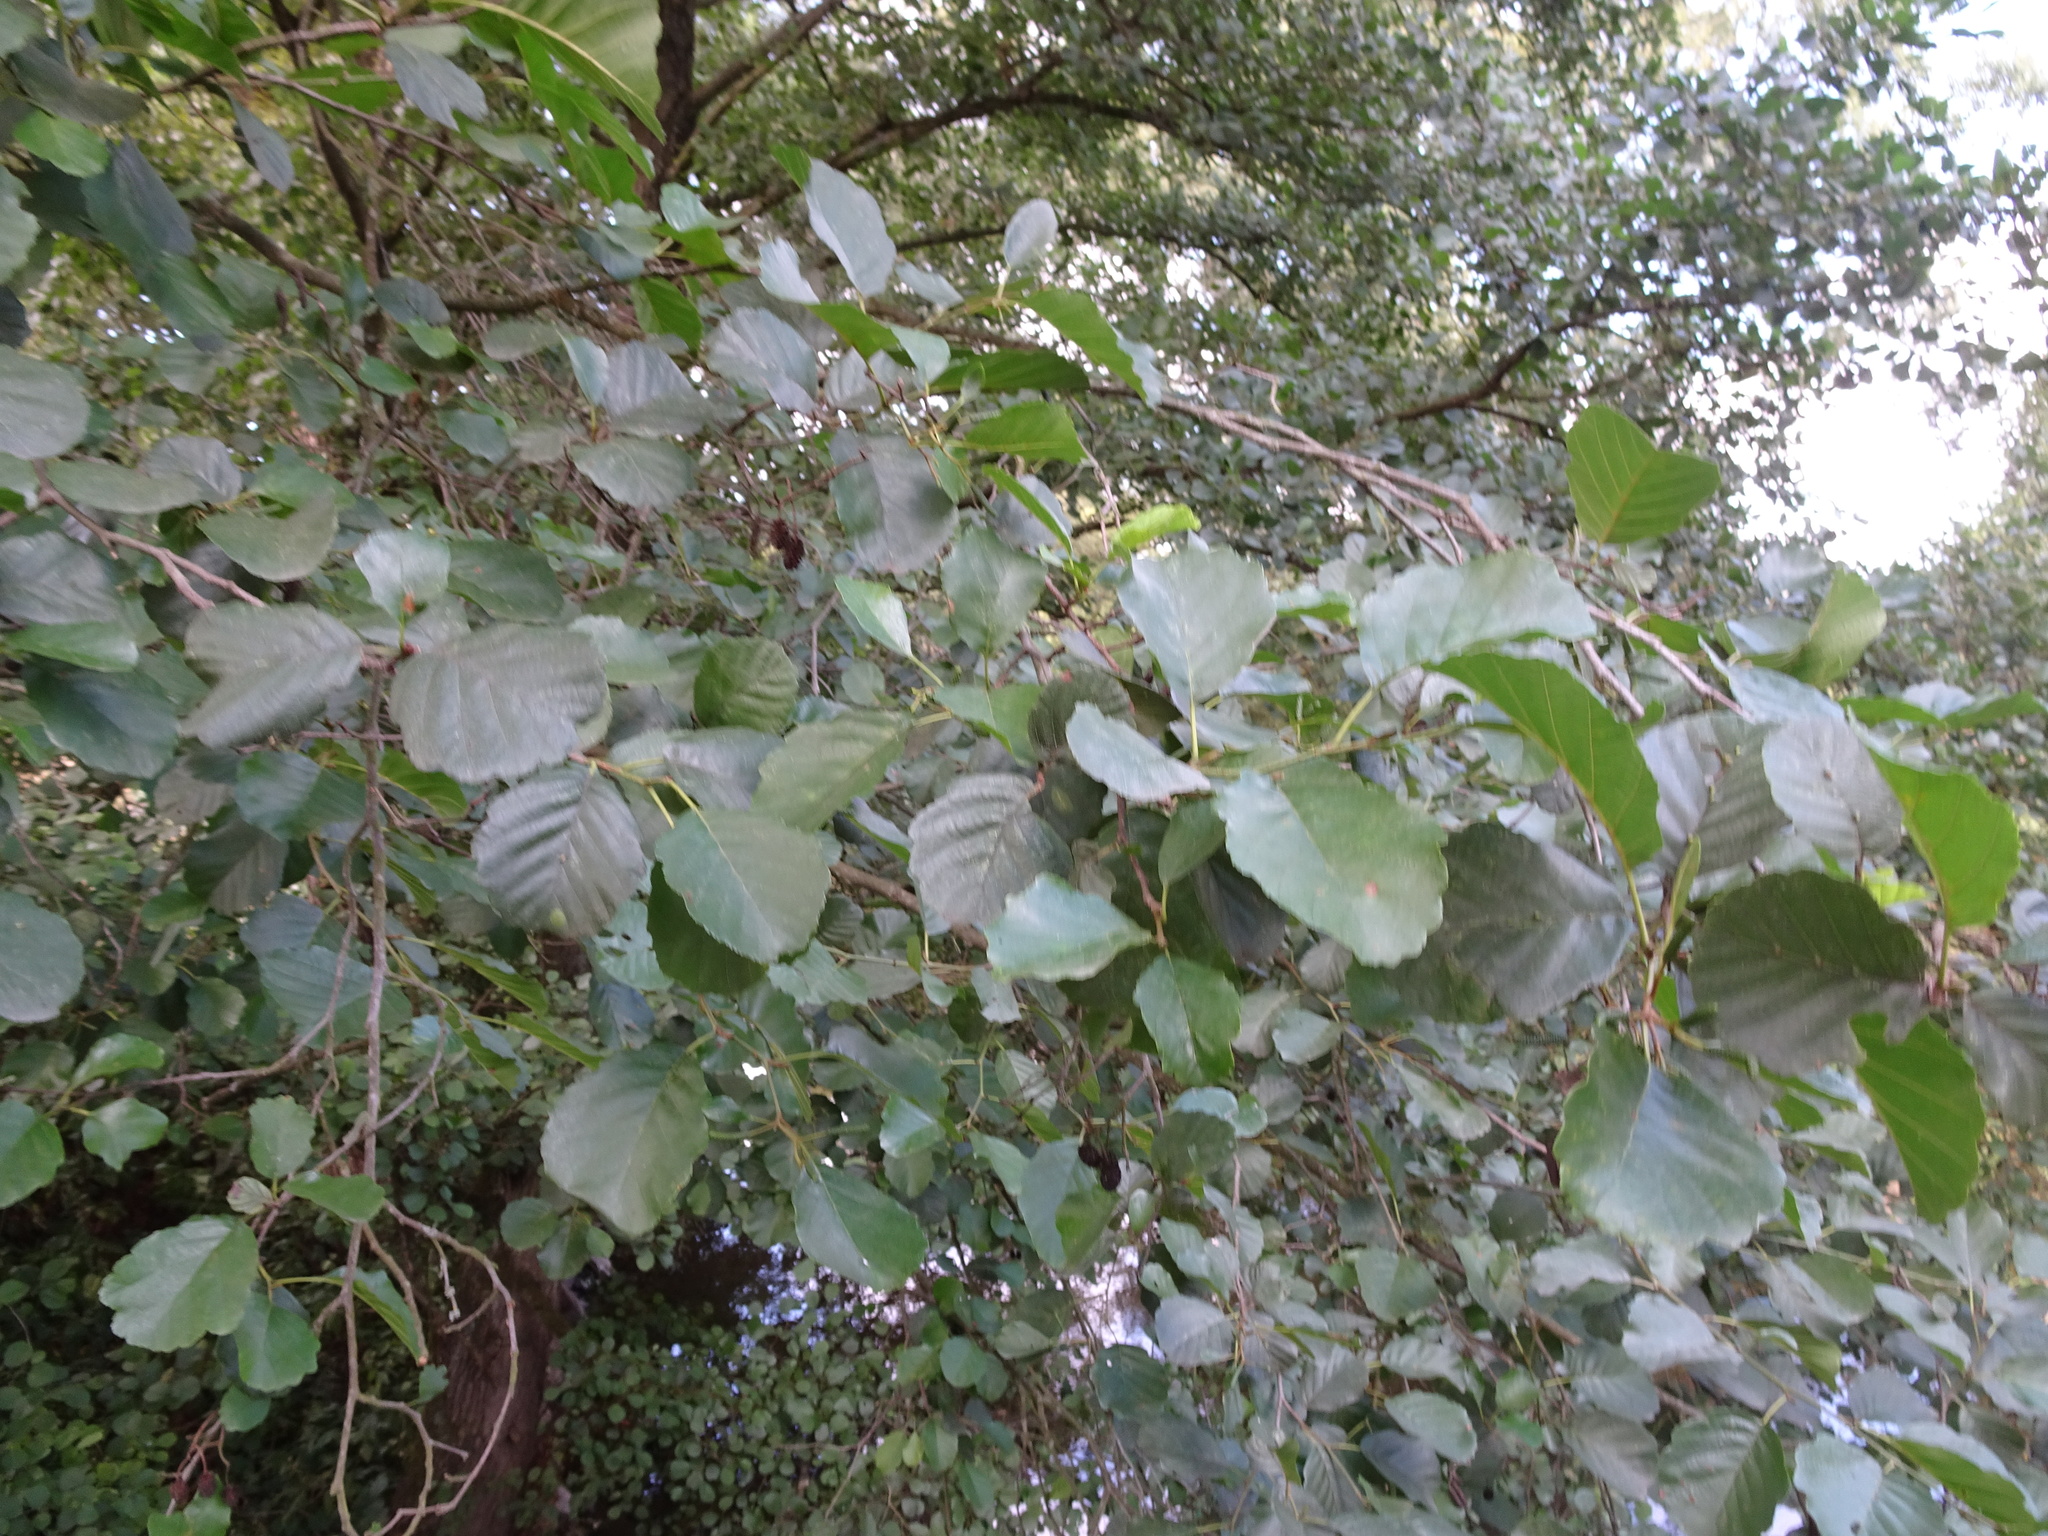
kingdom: Plantae
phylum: Tracheophyta
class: Magnoliopsida
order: Fagales
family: Betulaceae
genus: Alnus
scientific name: Alnus glutinosa
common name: Black alder
